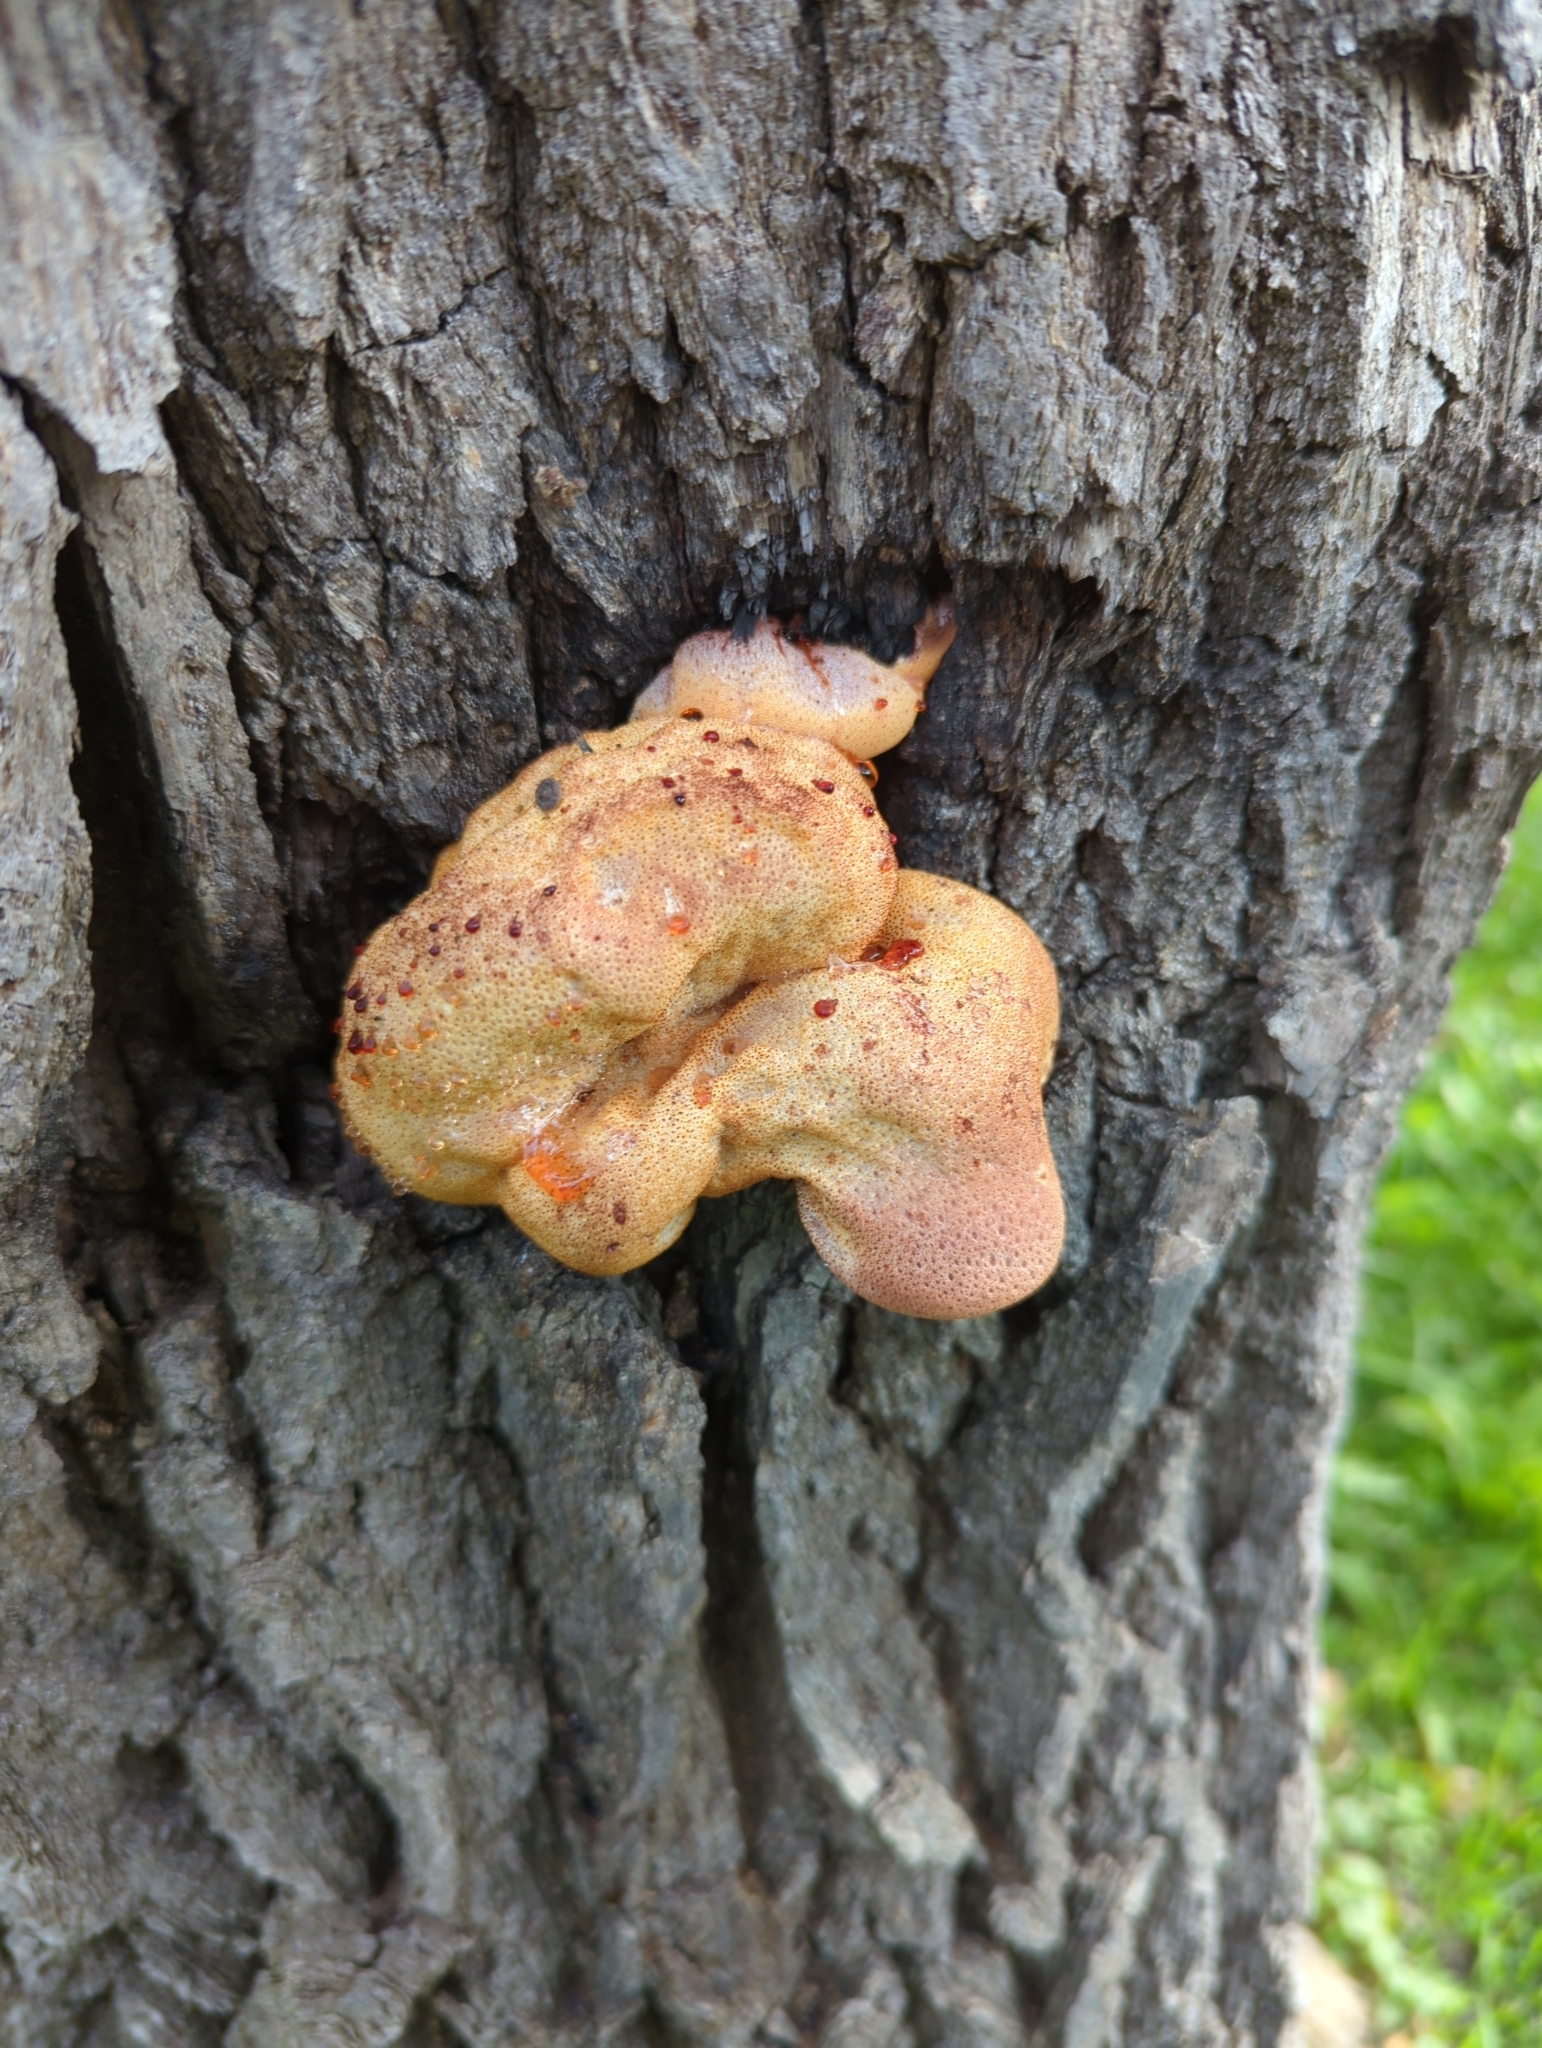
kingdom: Fungi
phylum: Basidiomycota
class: Agaricomycetes
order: Agaricales
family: Fistulinaceae
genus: Fistulina
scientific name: Fistulina hepatica
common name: Beef-steak fungus
